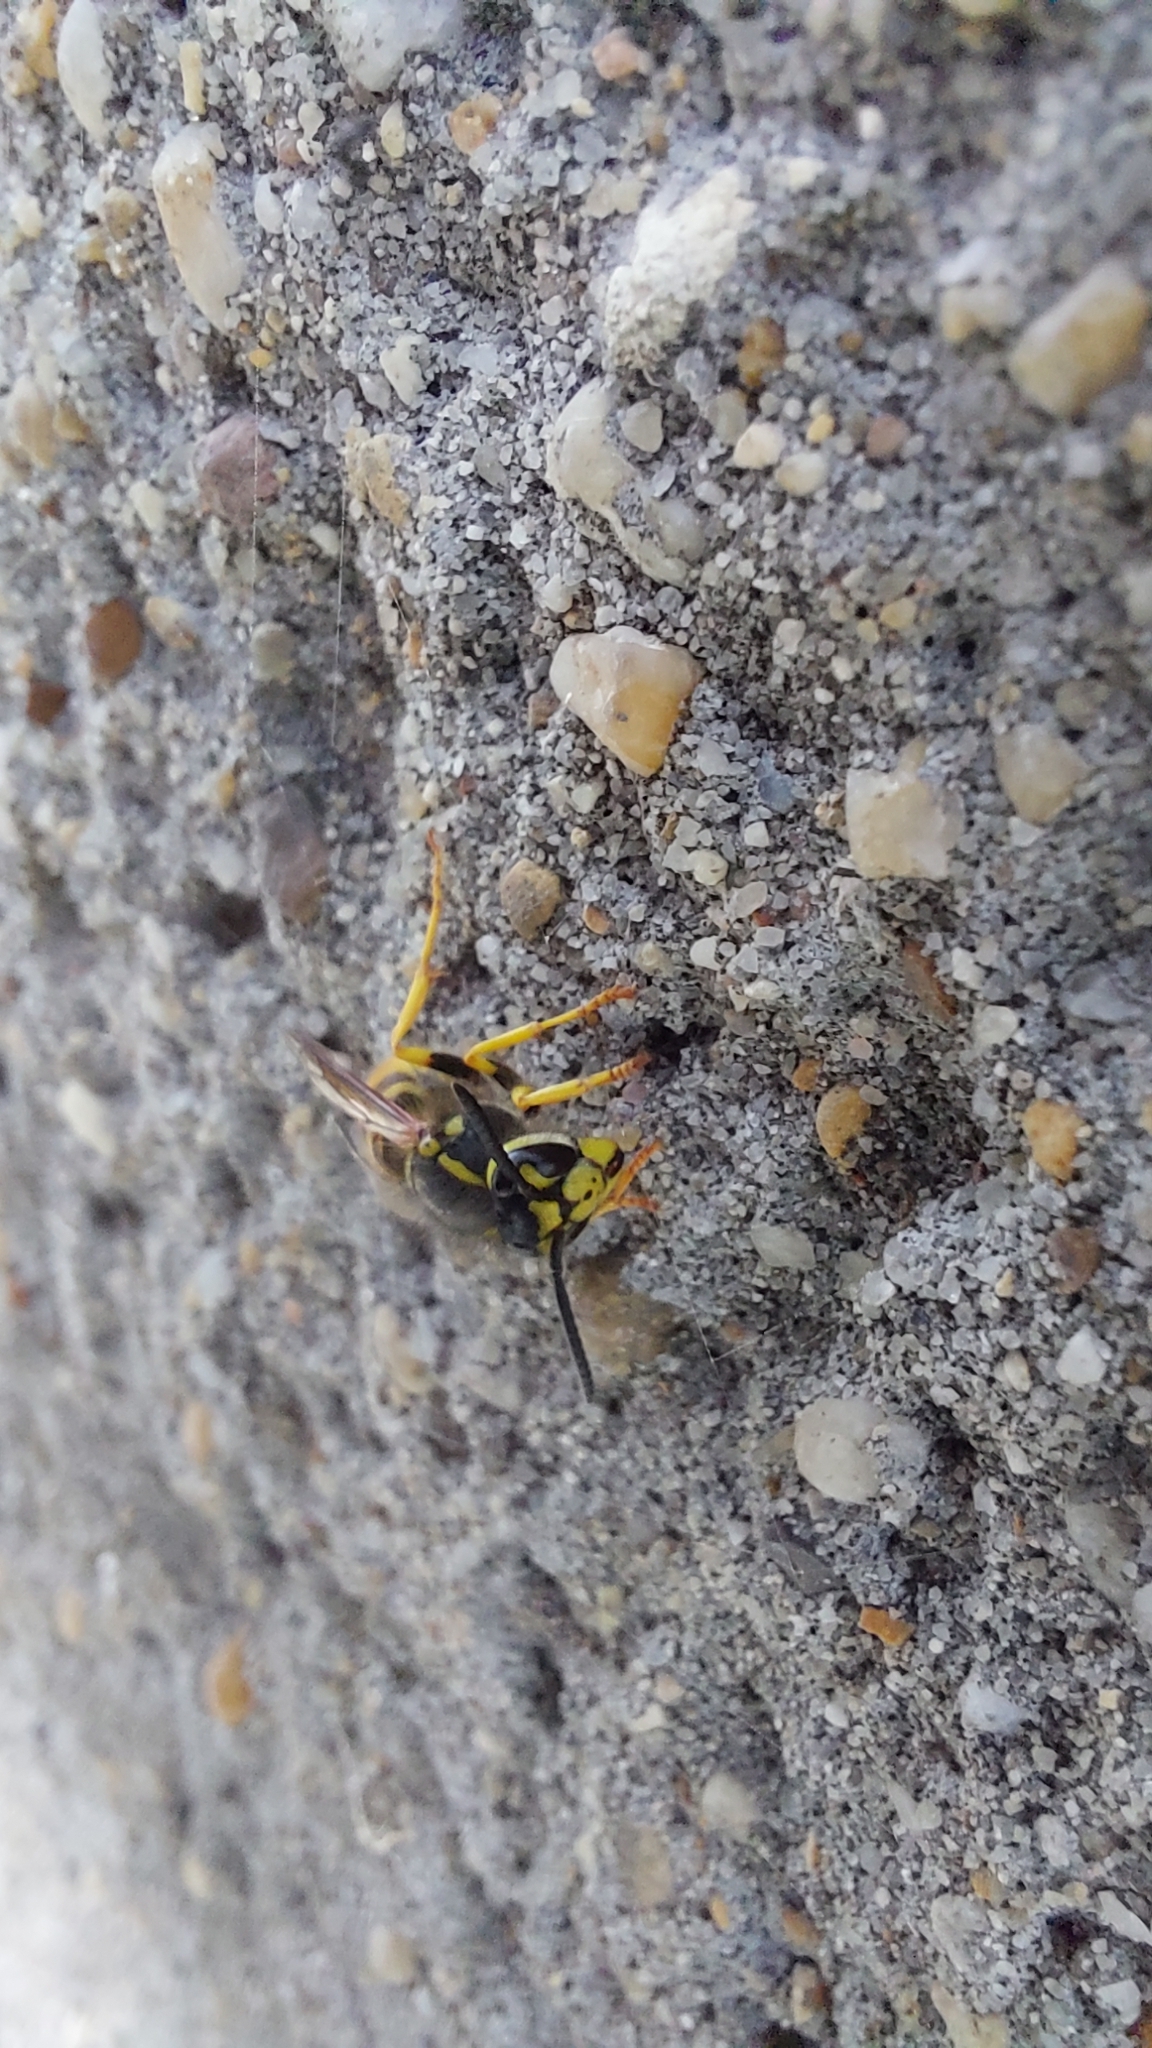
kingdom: Animalia
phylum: Arthropoda
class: Insecta
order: Hymenoptera
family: Vespidae
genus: Vespula
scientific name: Vespula germanica
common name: German wasp
